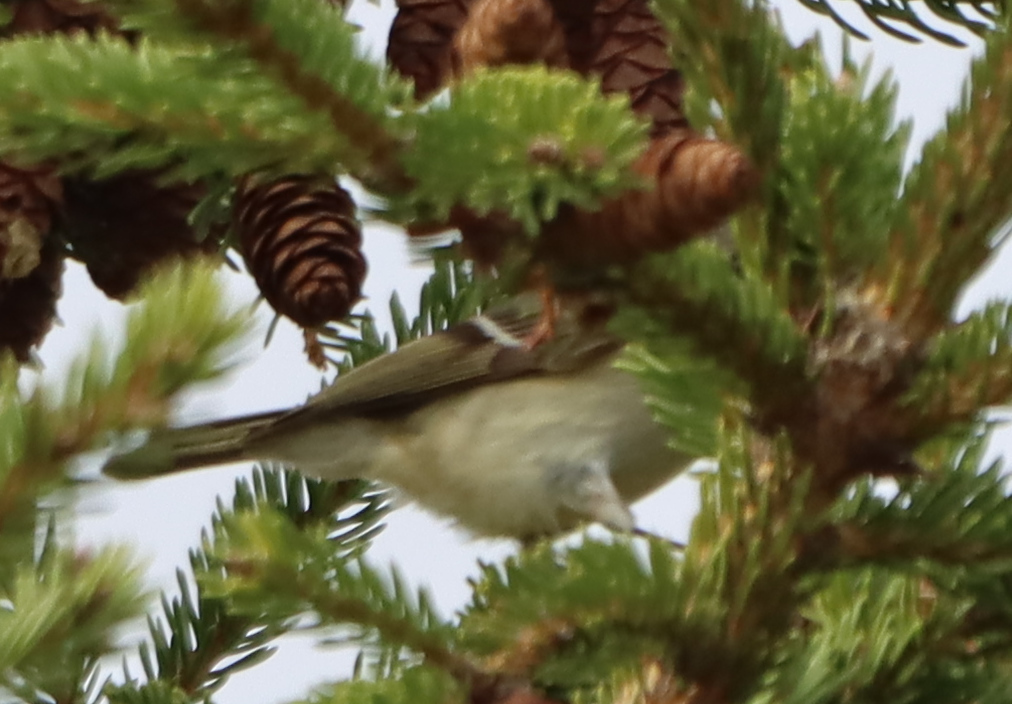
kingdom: Animalia
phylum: Chordata
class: Aves
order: Passeriformes
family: Regulidae
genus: Regulus
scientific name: Regulus calendula
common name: Ruby-crowned kinglet
